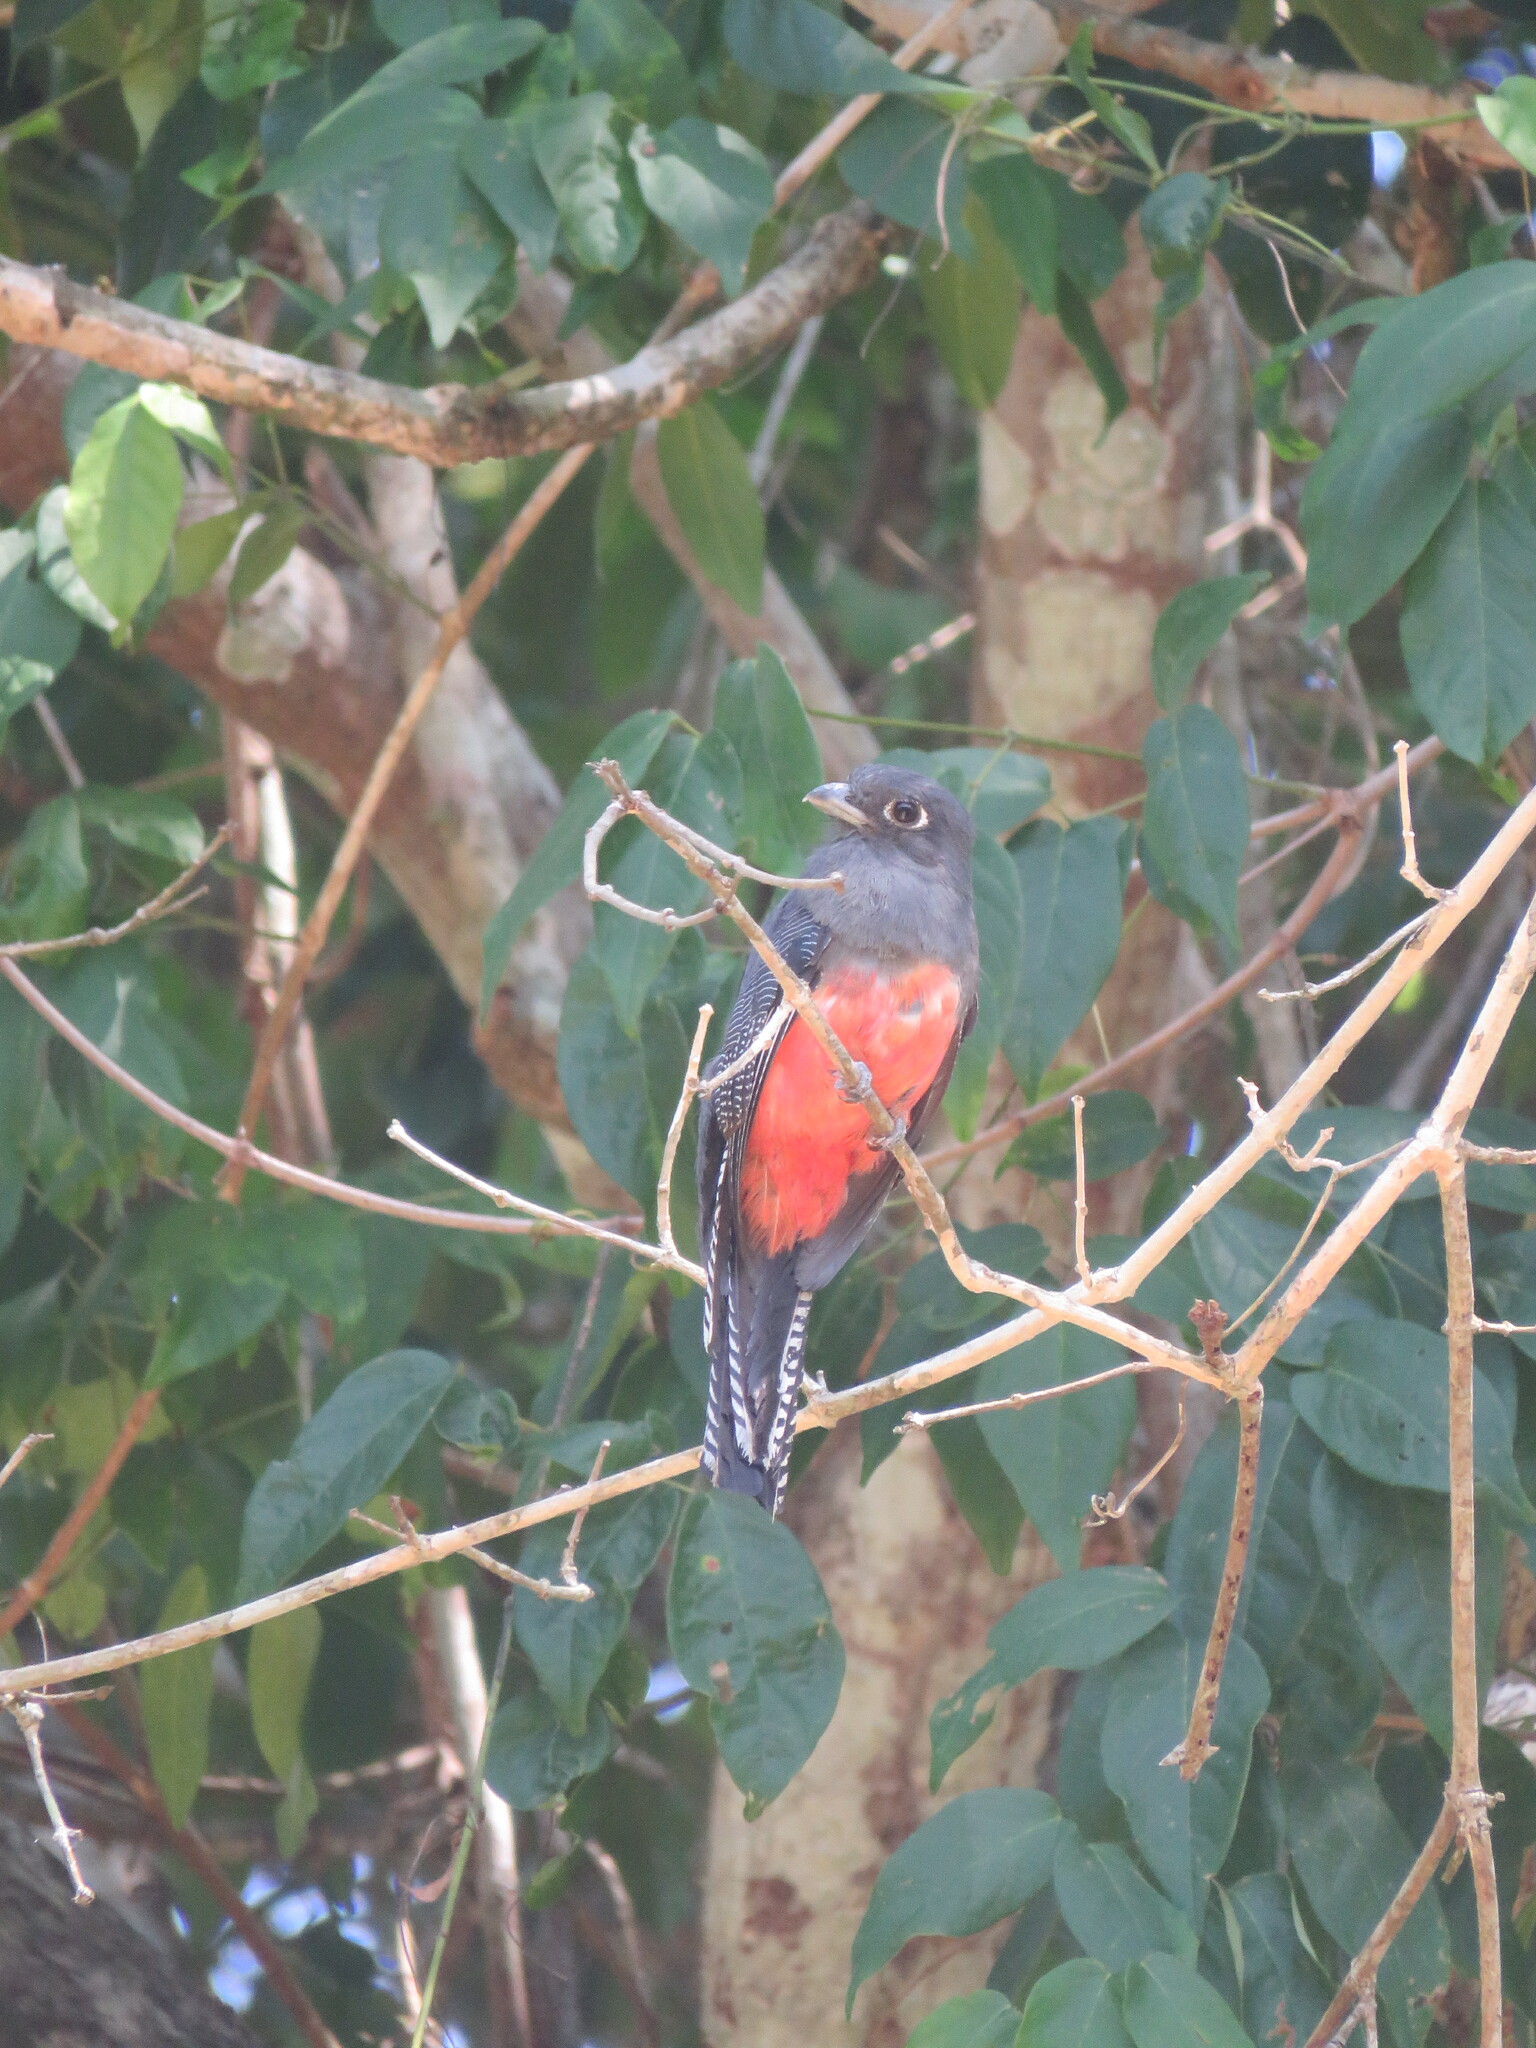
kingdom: Animalia
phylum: Chordata
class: Aves
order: Trogoniformes
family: Trogonidae
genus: Trogon
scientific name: Trogon curucui
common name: Blue-crowned trogon
